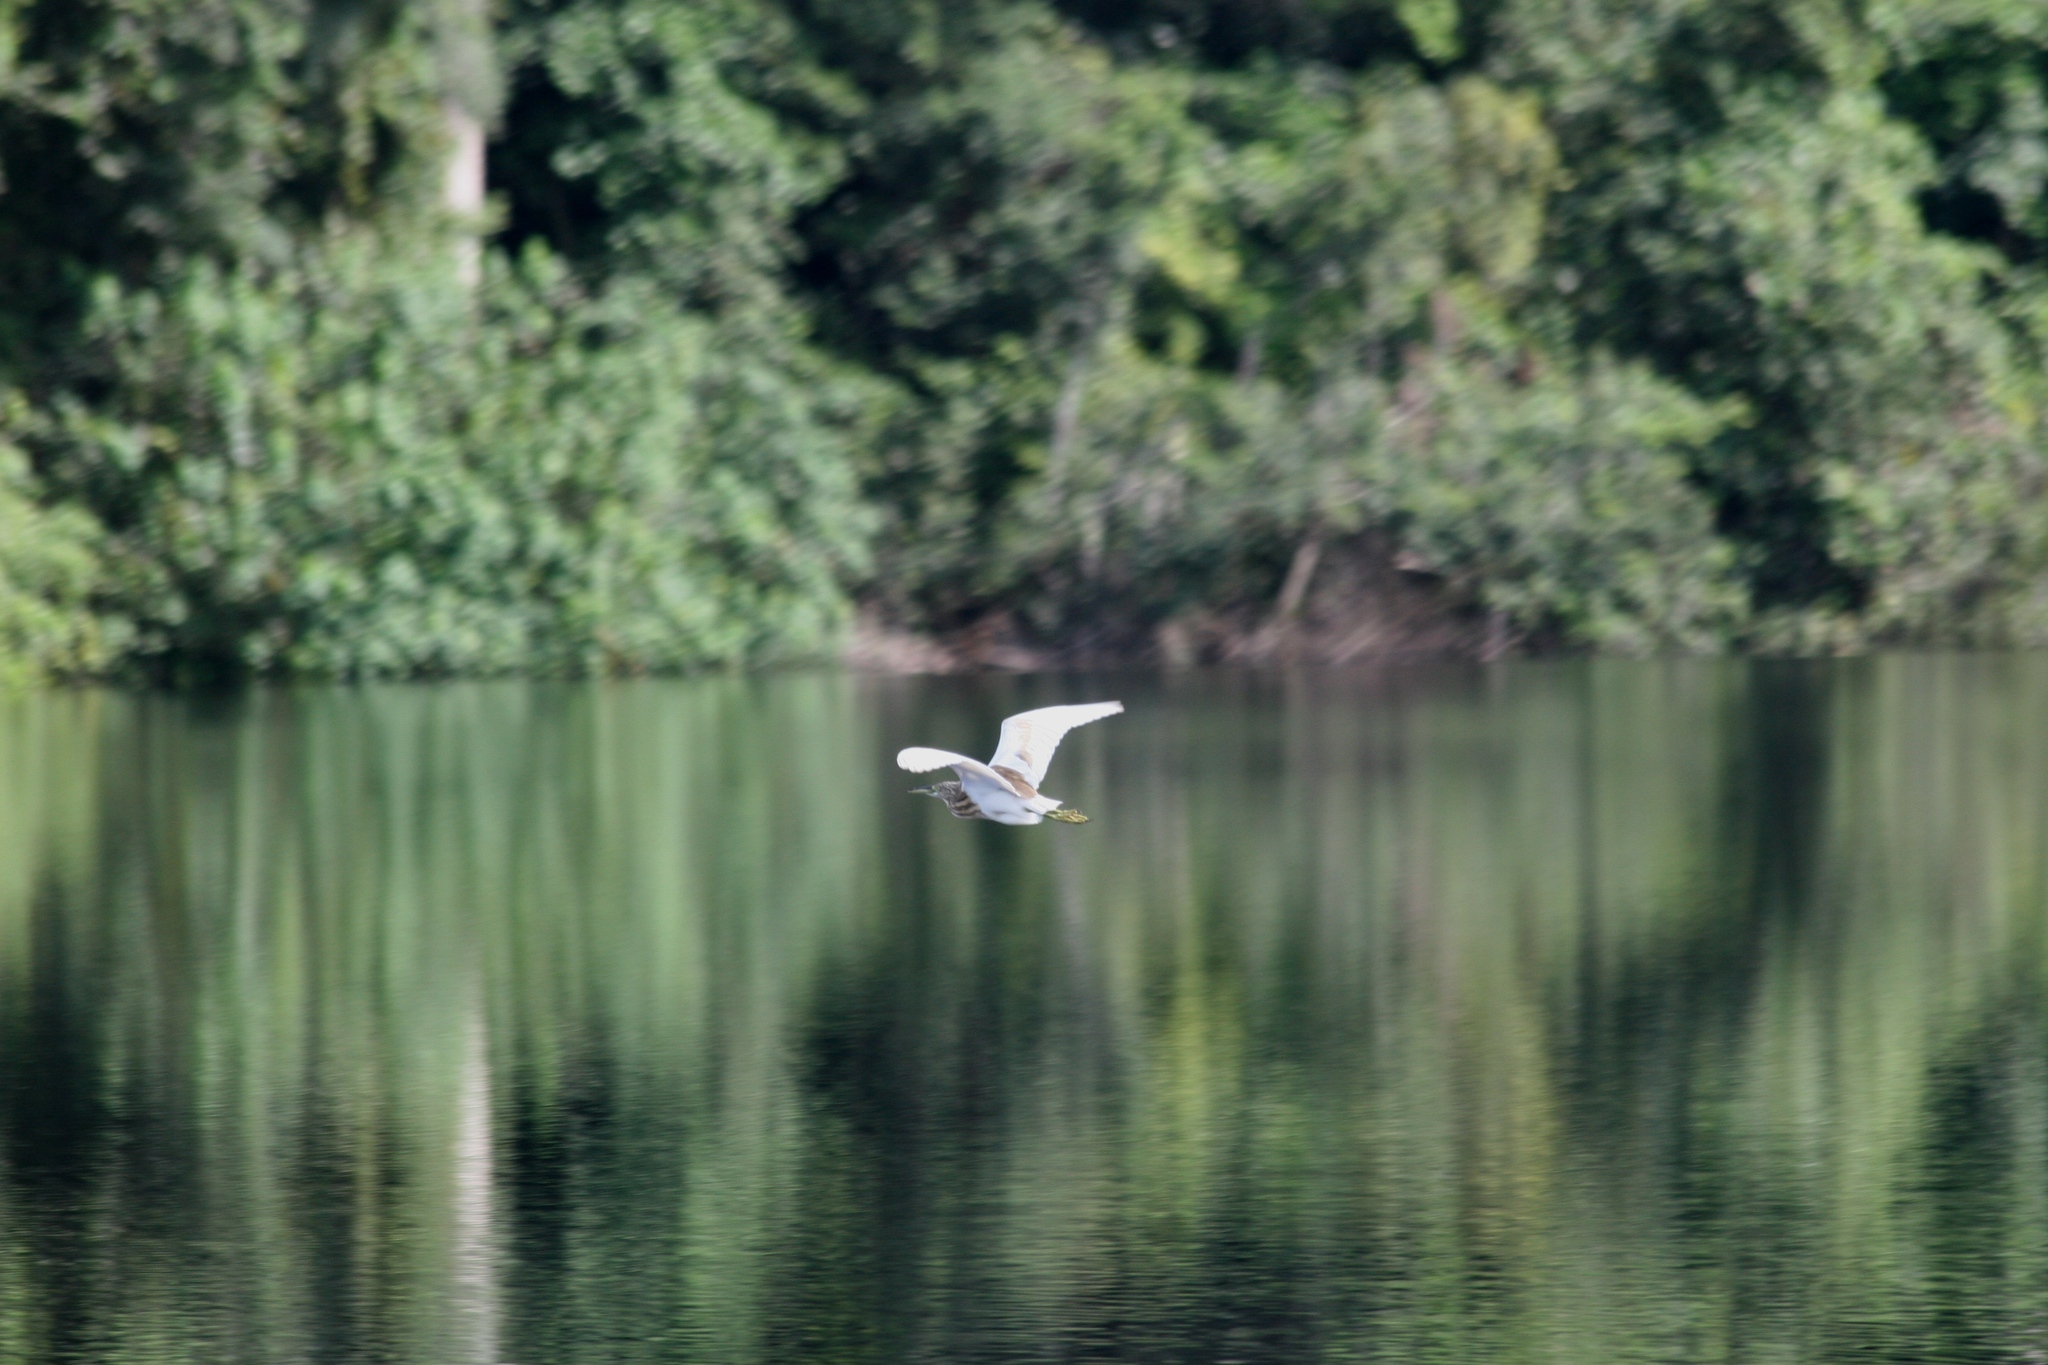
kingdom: Animalia
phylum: Chordata
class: Aves
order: Pelecaniformes
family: Ardeidae
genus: Ardeola
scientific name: Ardeola ralloides
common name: Squacco heron
